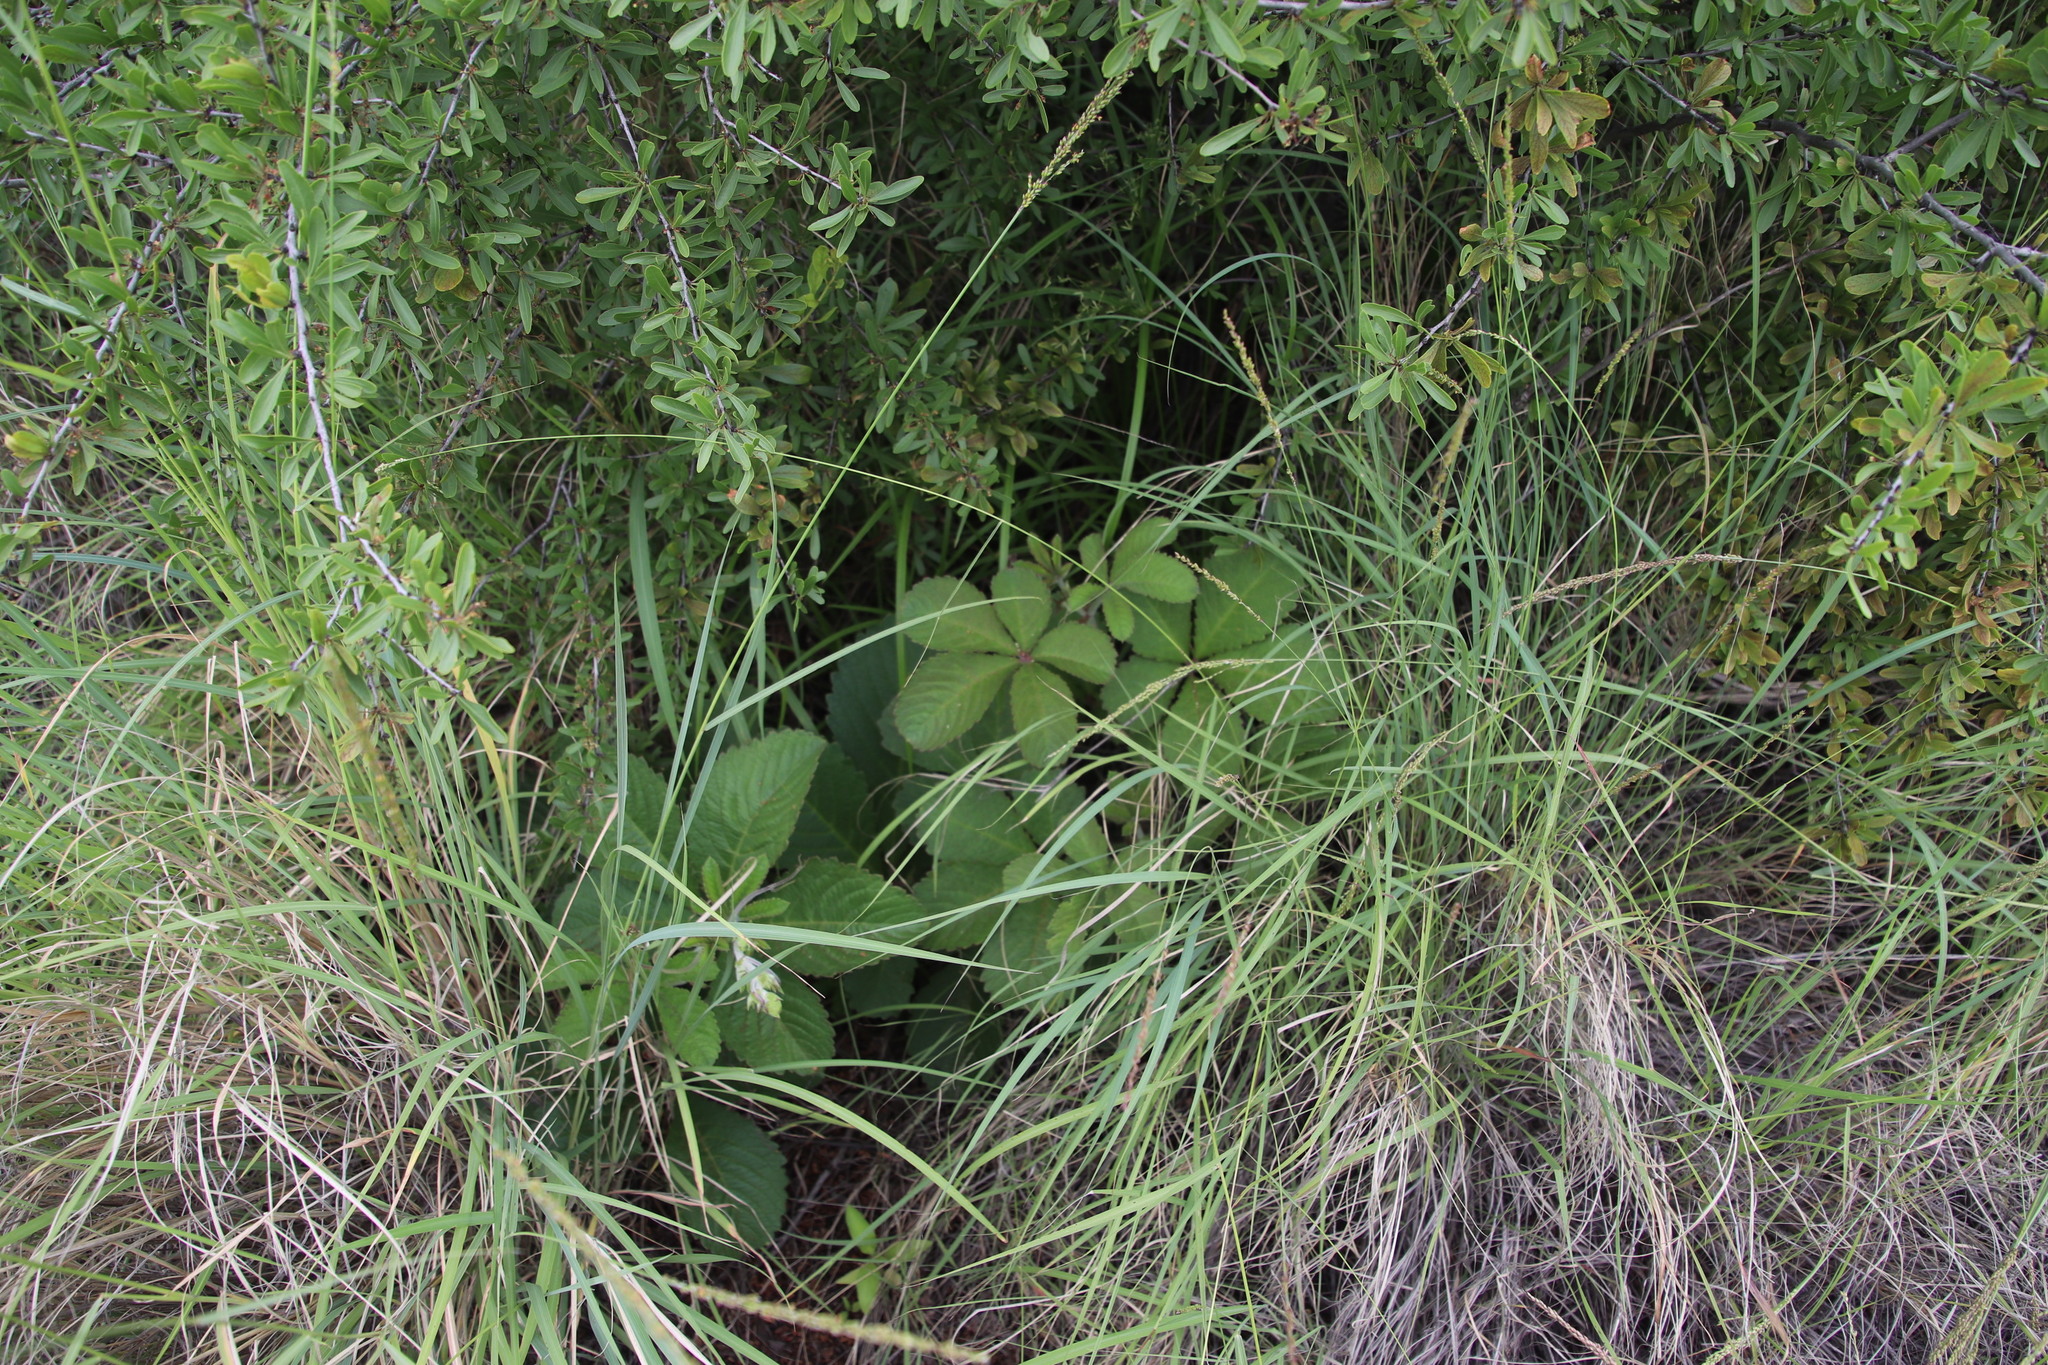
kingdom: Plantae
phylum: Tracheophyta
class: Magnoliopsida
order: Vitales
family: Vitaceae
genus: Cyphostemma
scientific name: Cyphostemma lanigerum
